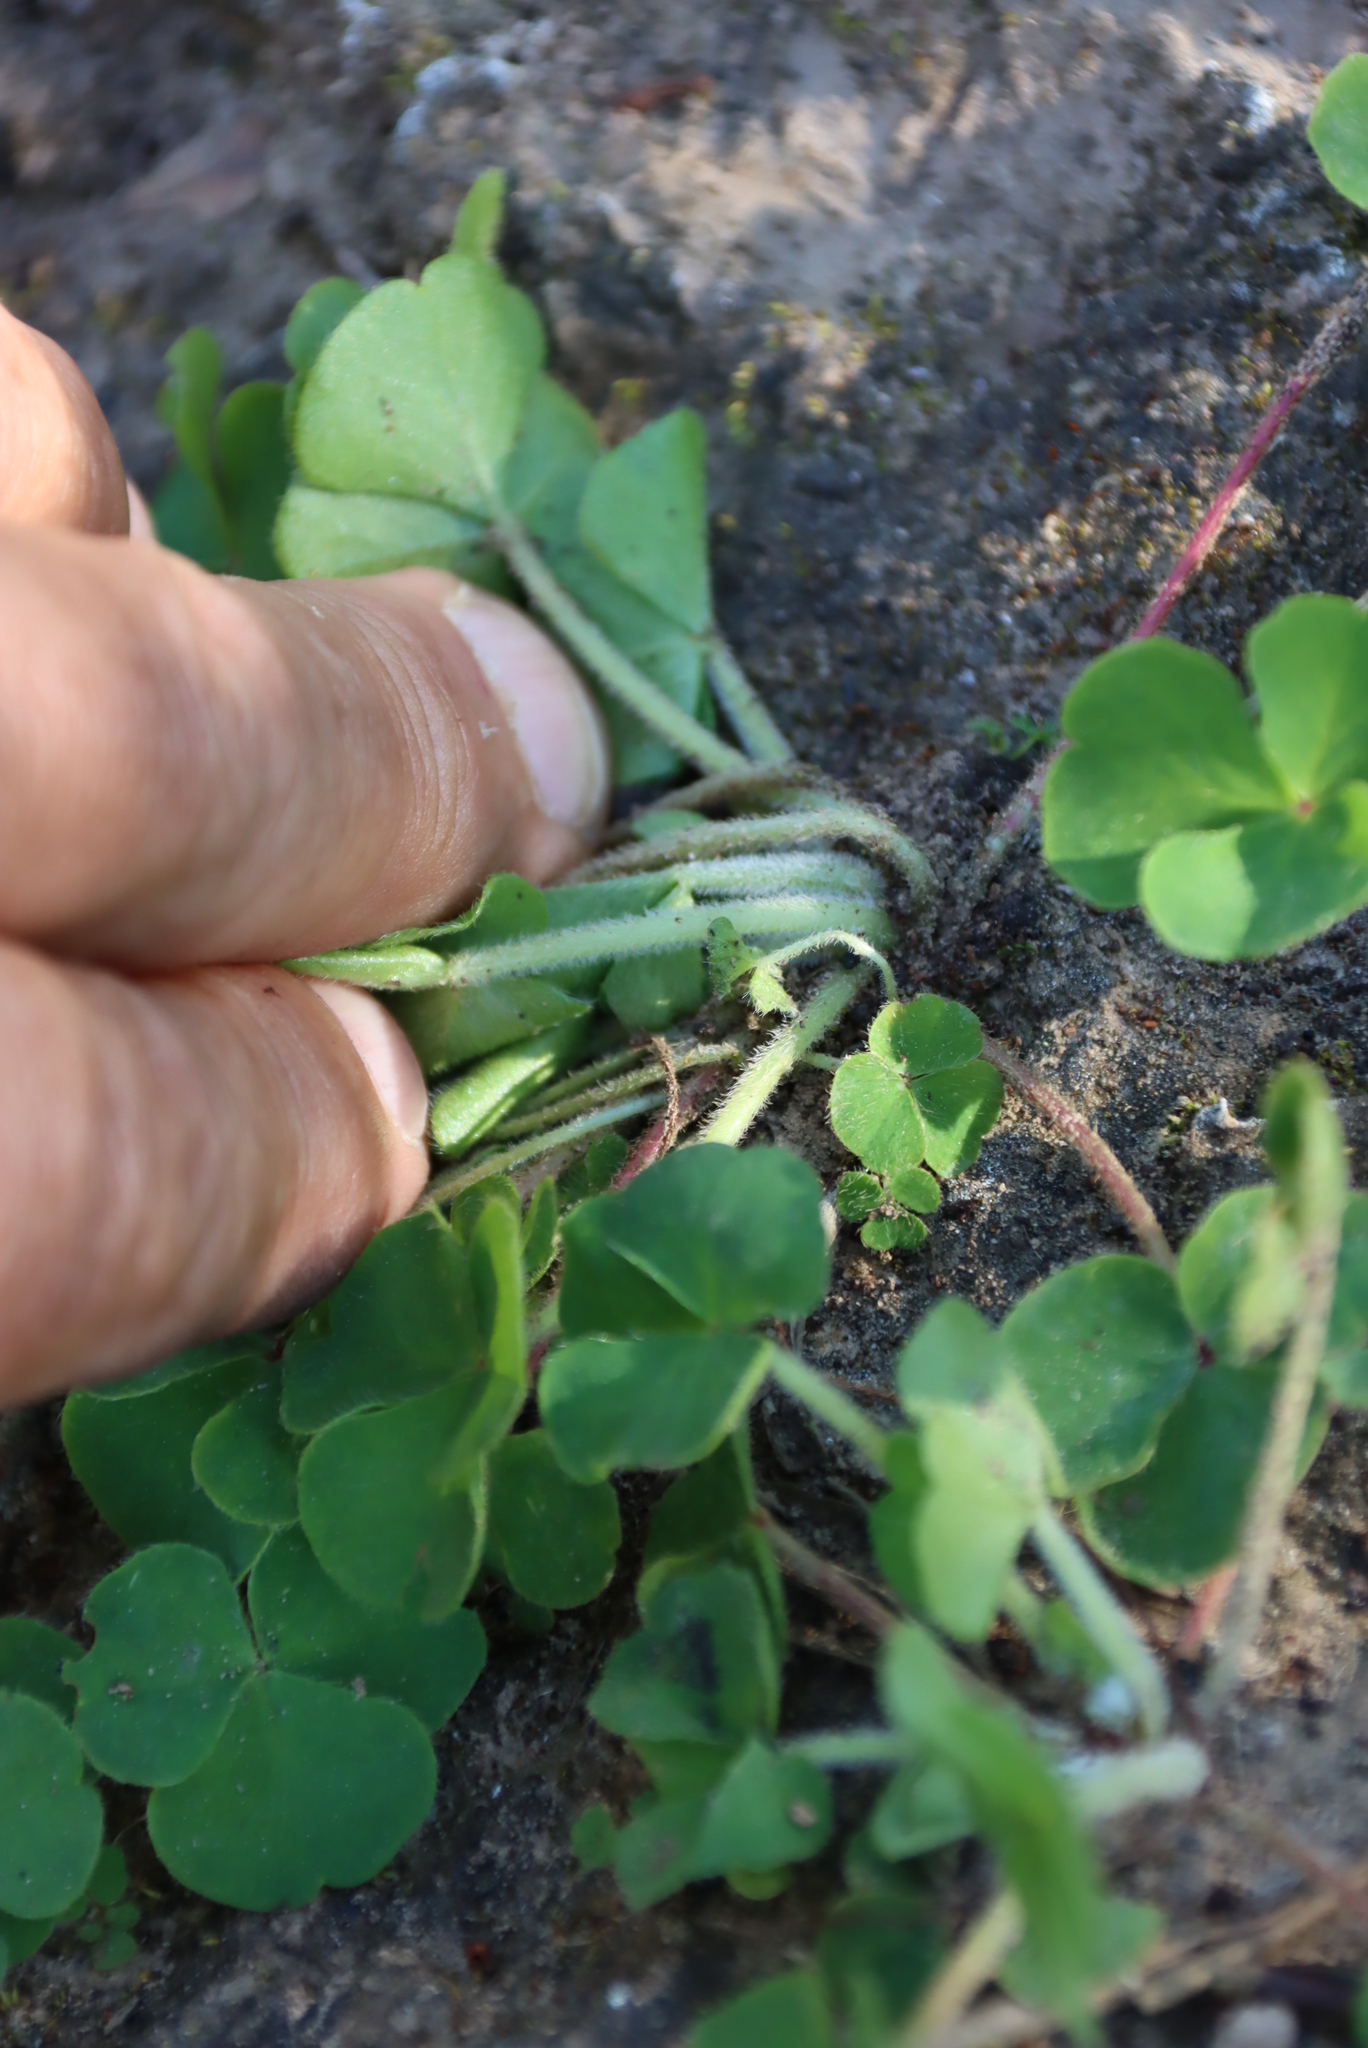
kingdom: Plantae
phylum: Tracheophyta
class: Magnoliopsida
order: Oxalidales
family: Oxalidaceae
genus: Oxalis
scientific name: Oxalis imbricata
